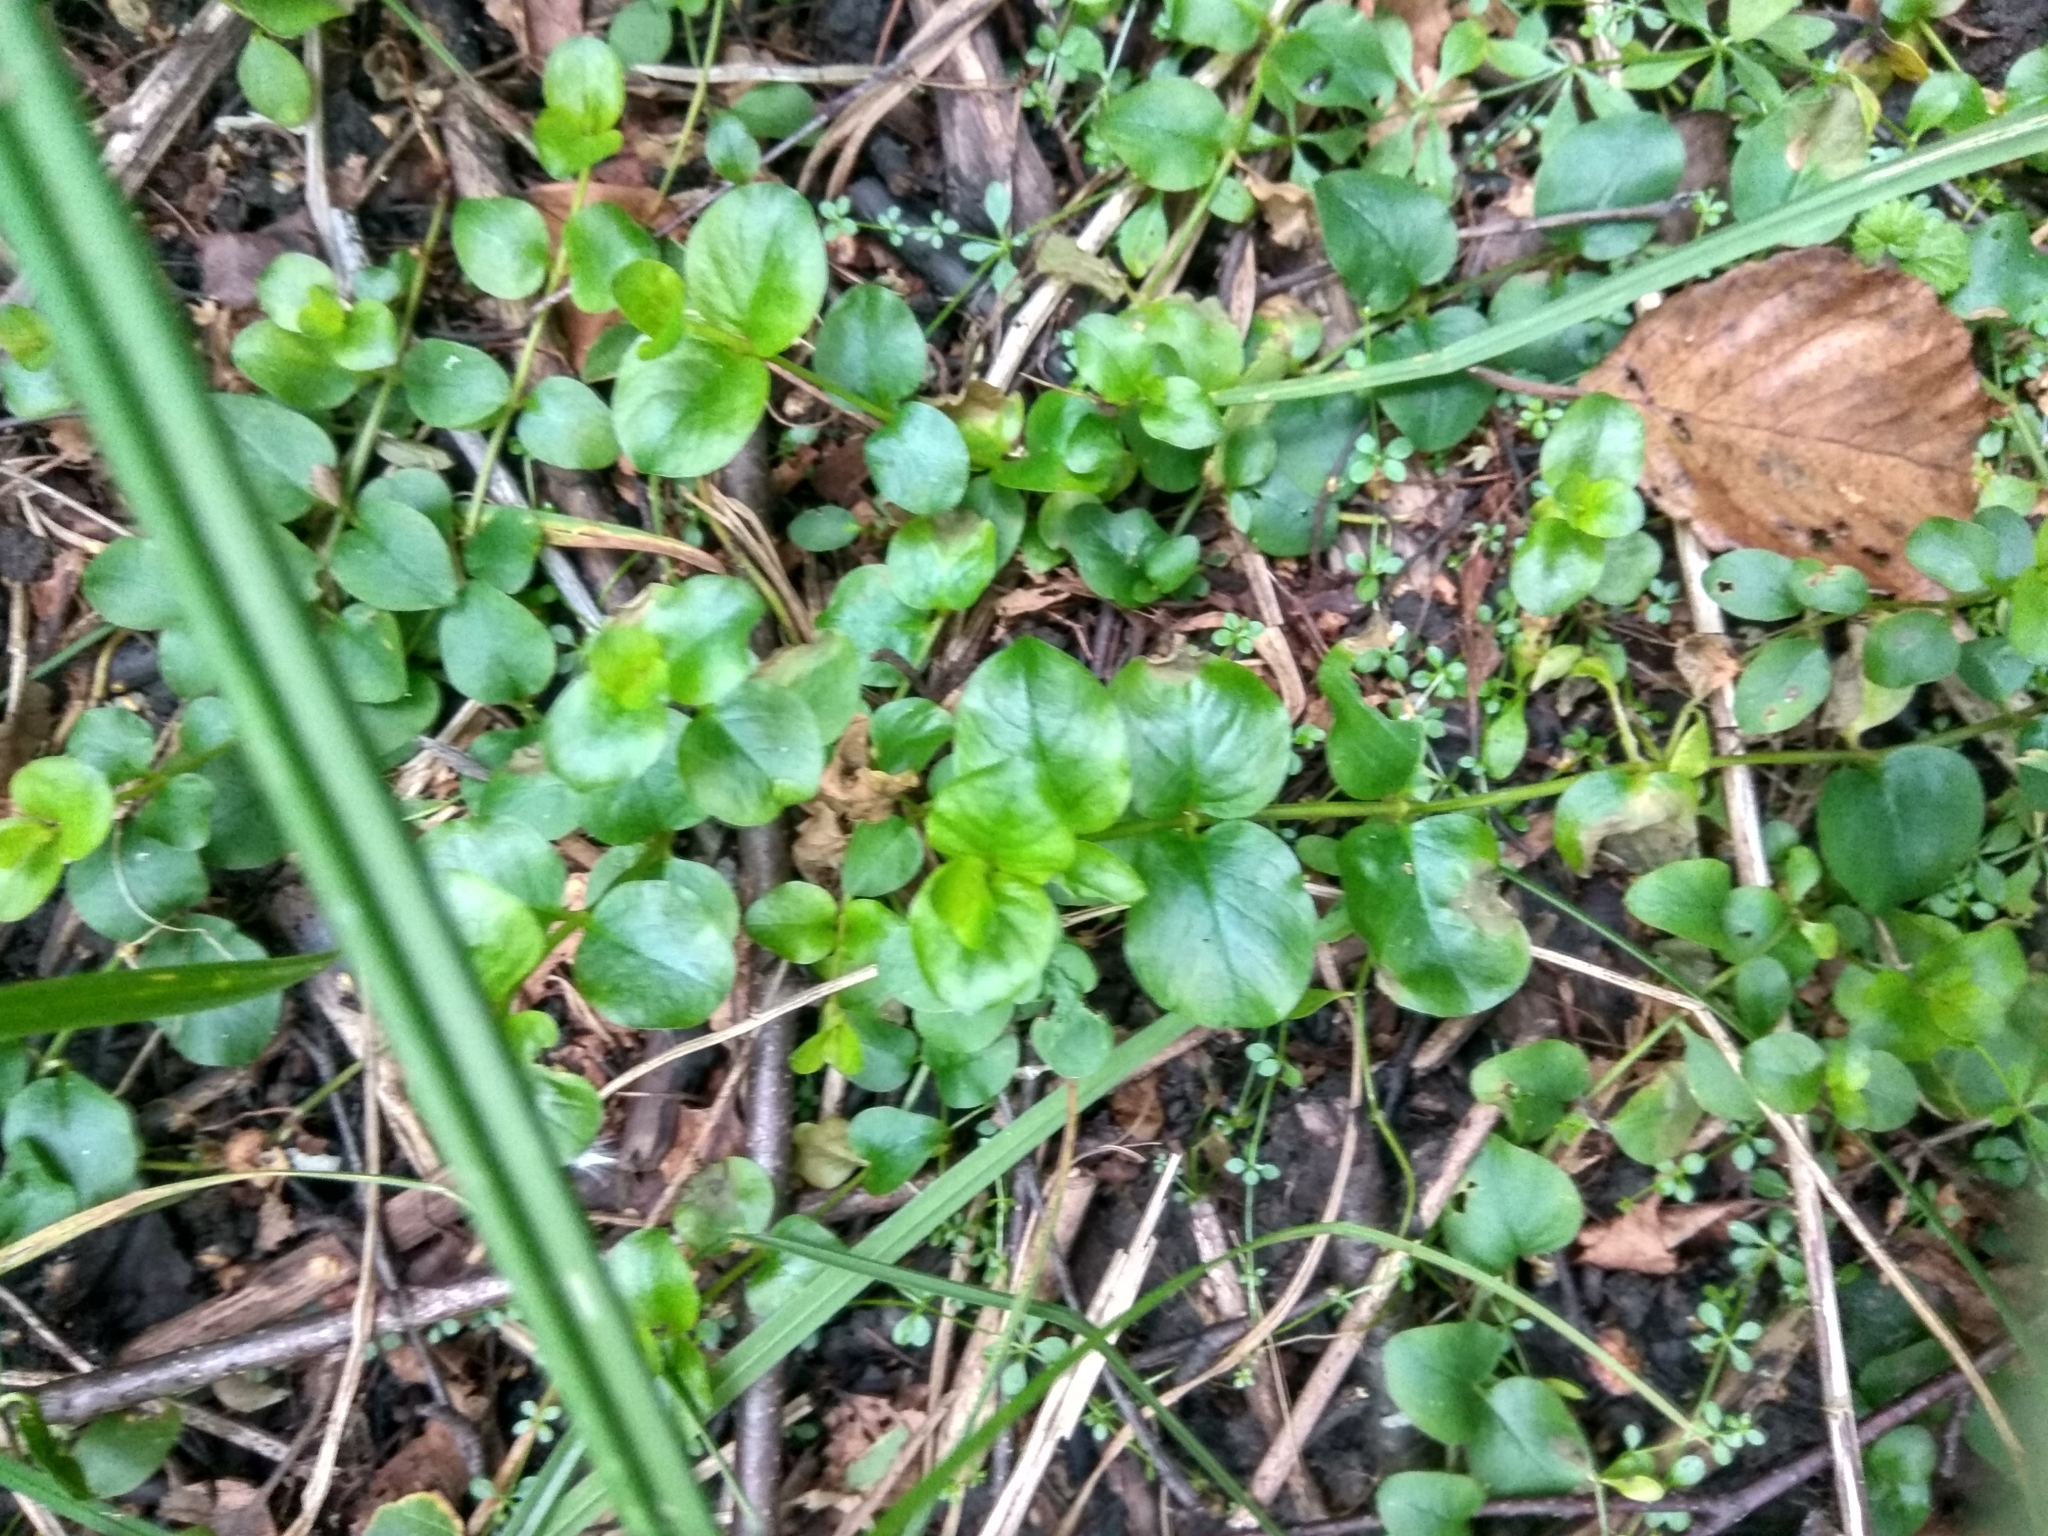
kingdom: Plantae
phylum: Tracheophyta
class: Magnoliopsida
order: Ericales
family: Primulaceae
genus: Lysimachia
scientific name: Lysimachia nummularia
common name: Moneywort
